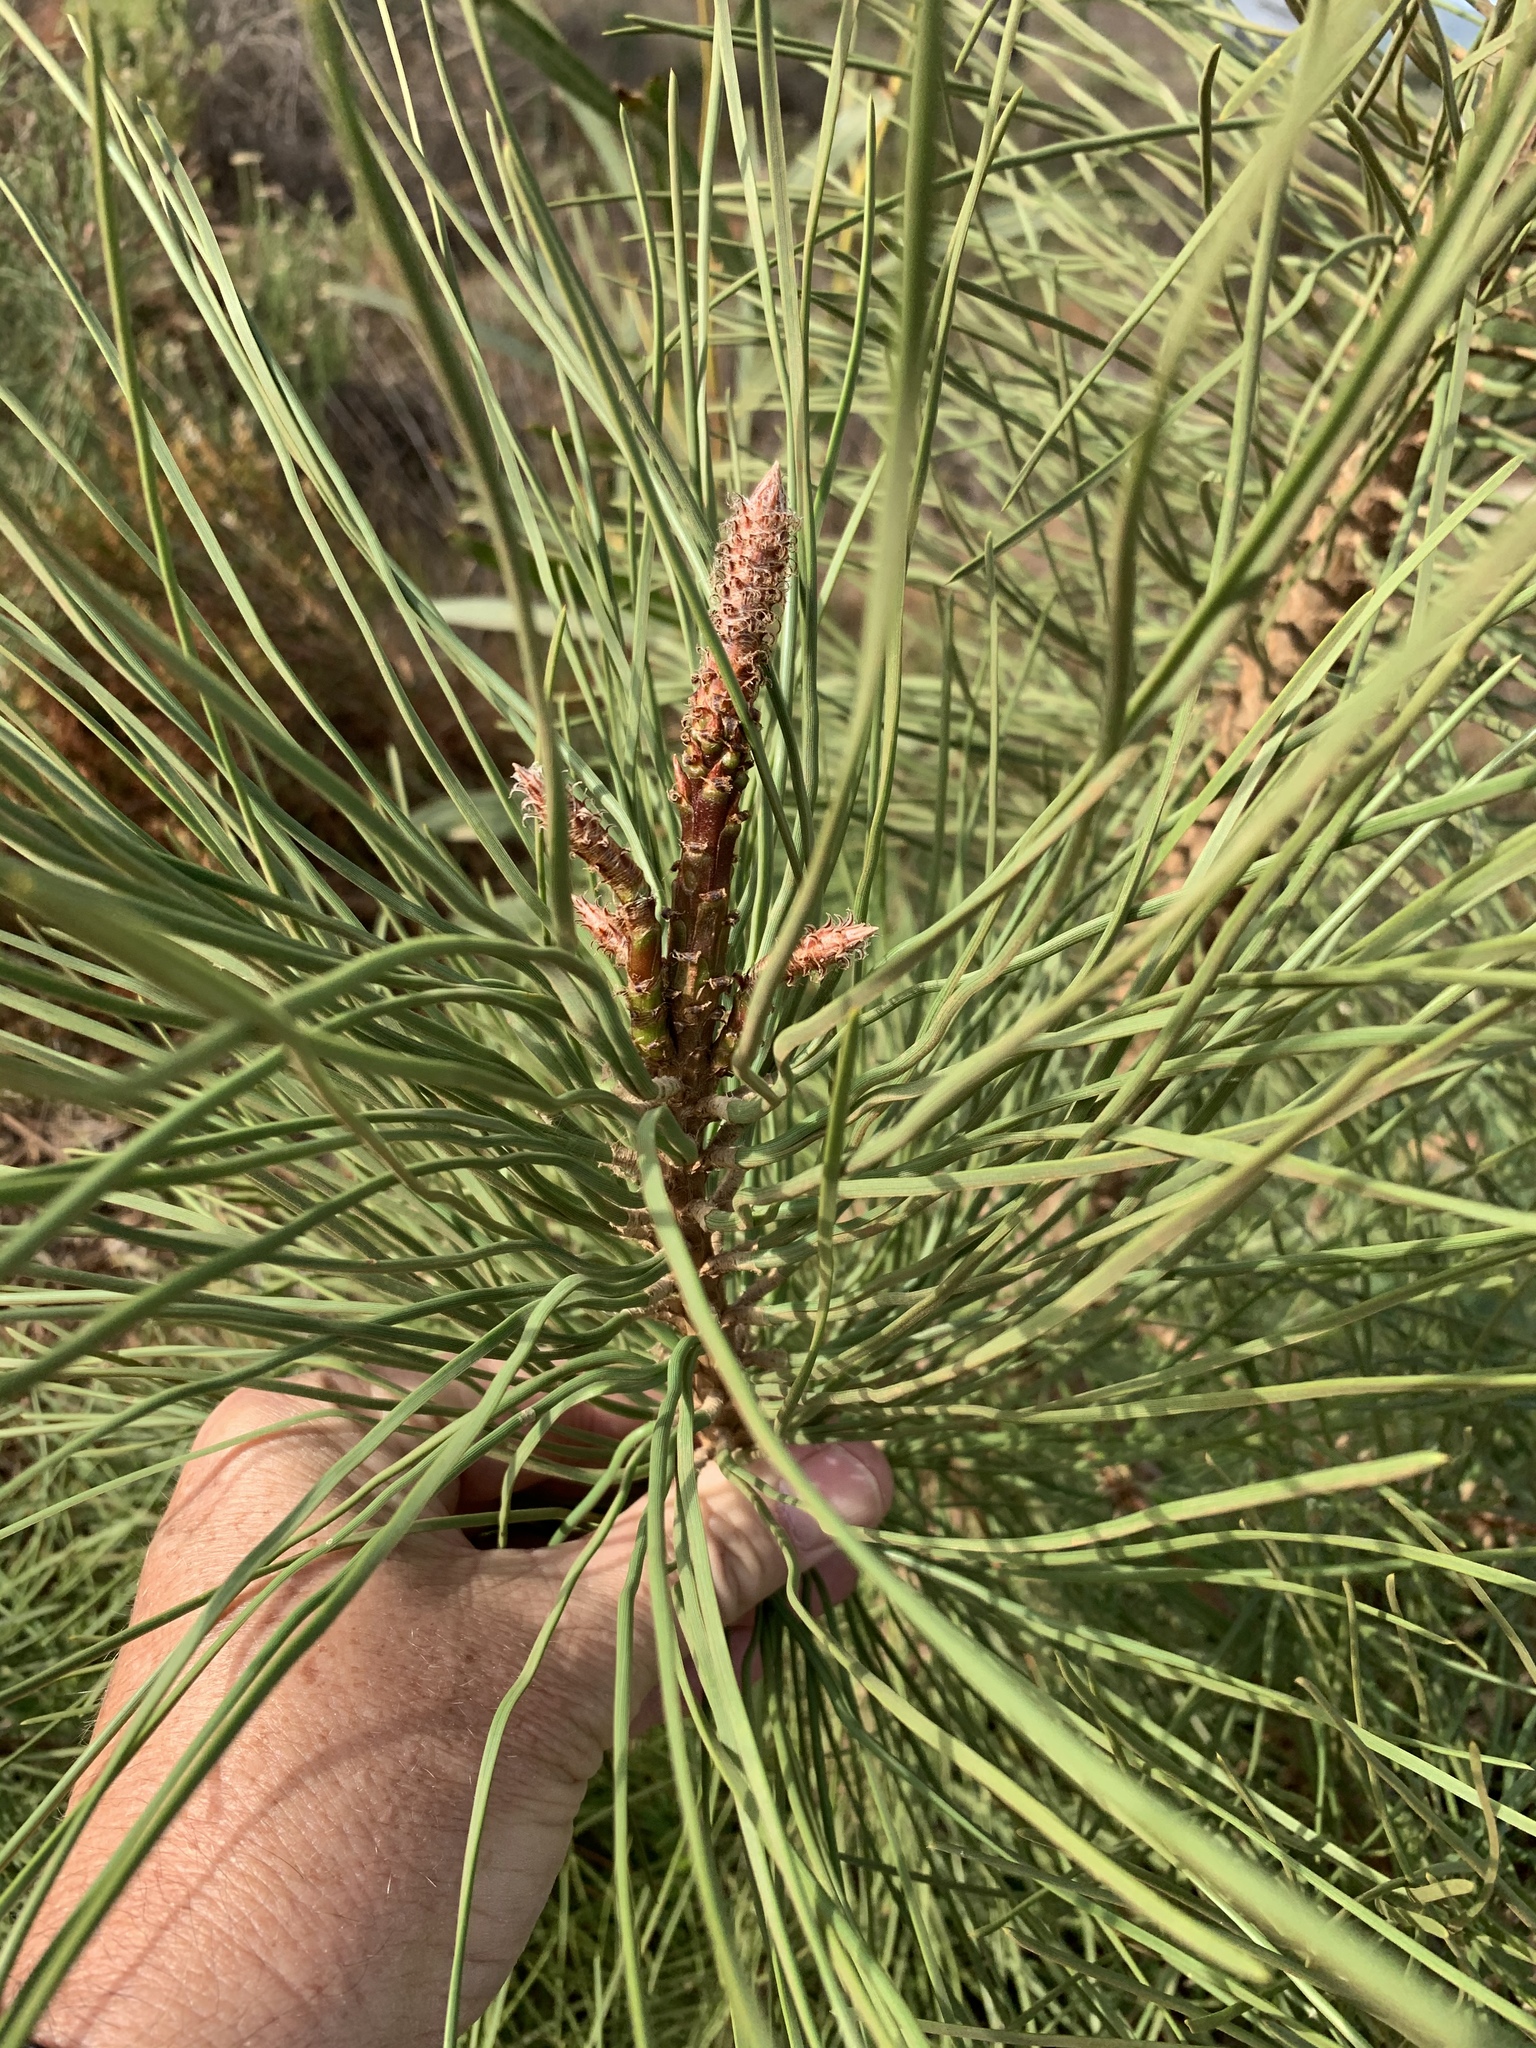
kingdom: Plantae
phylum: Tracheophyta
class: Pinopsida
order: Pinales
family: Pinaceae
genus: Pinus
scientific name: Pinus pinaster
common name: Maritime pine
